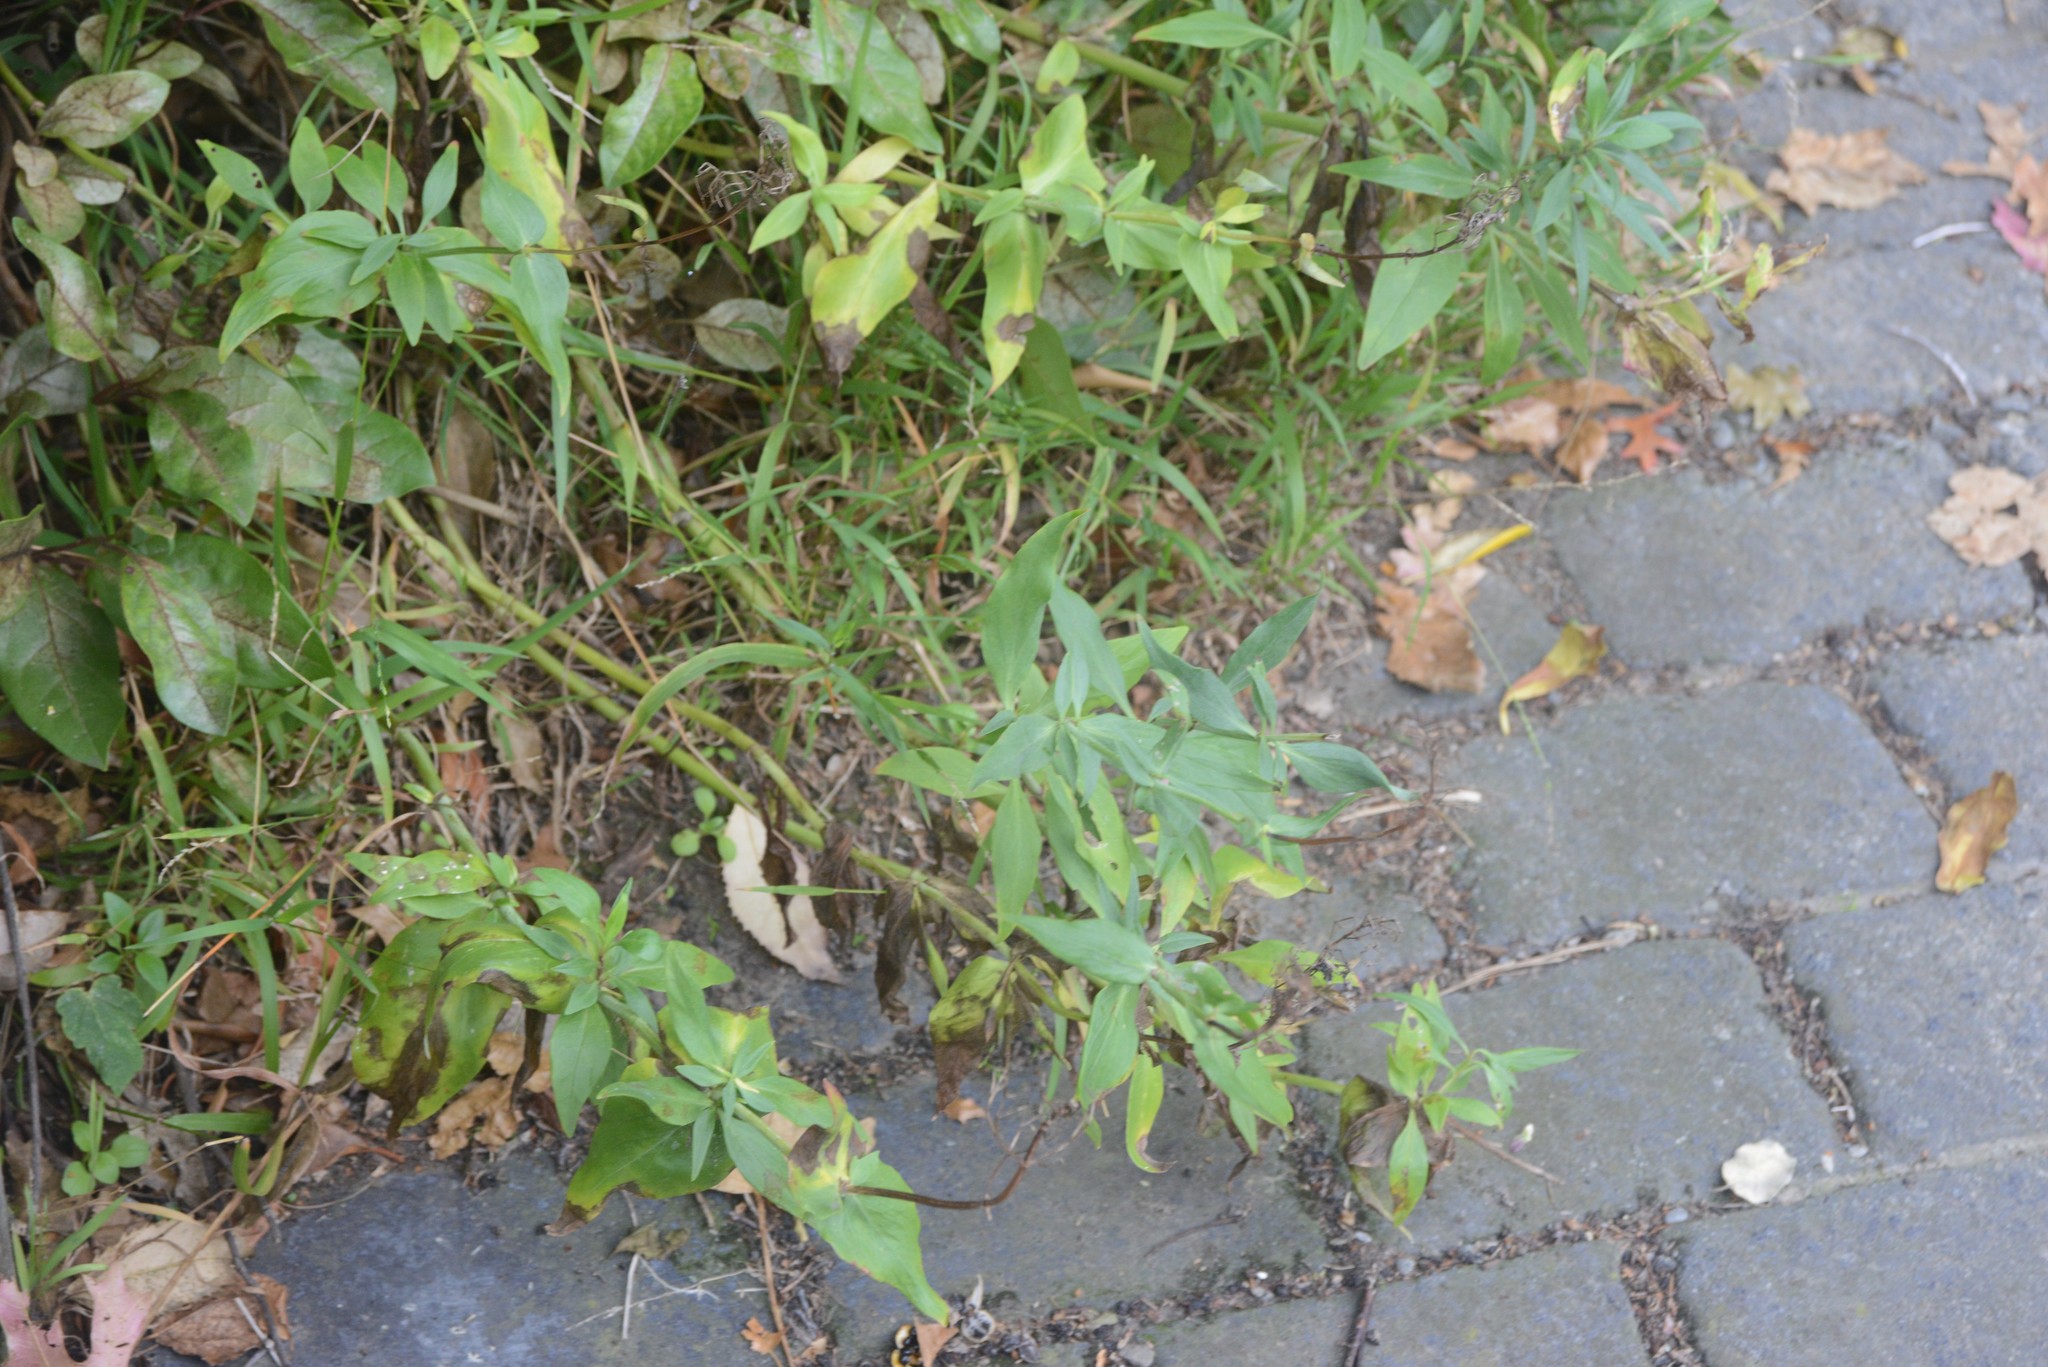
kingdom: Plantae
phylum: Tracheophyta
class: Magnoliopsida
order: Dipsacales
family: Caprifoliaceae
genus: Centranthus
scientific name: Centranthus ruber
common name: Red valerian
